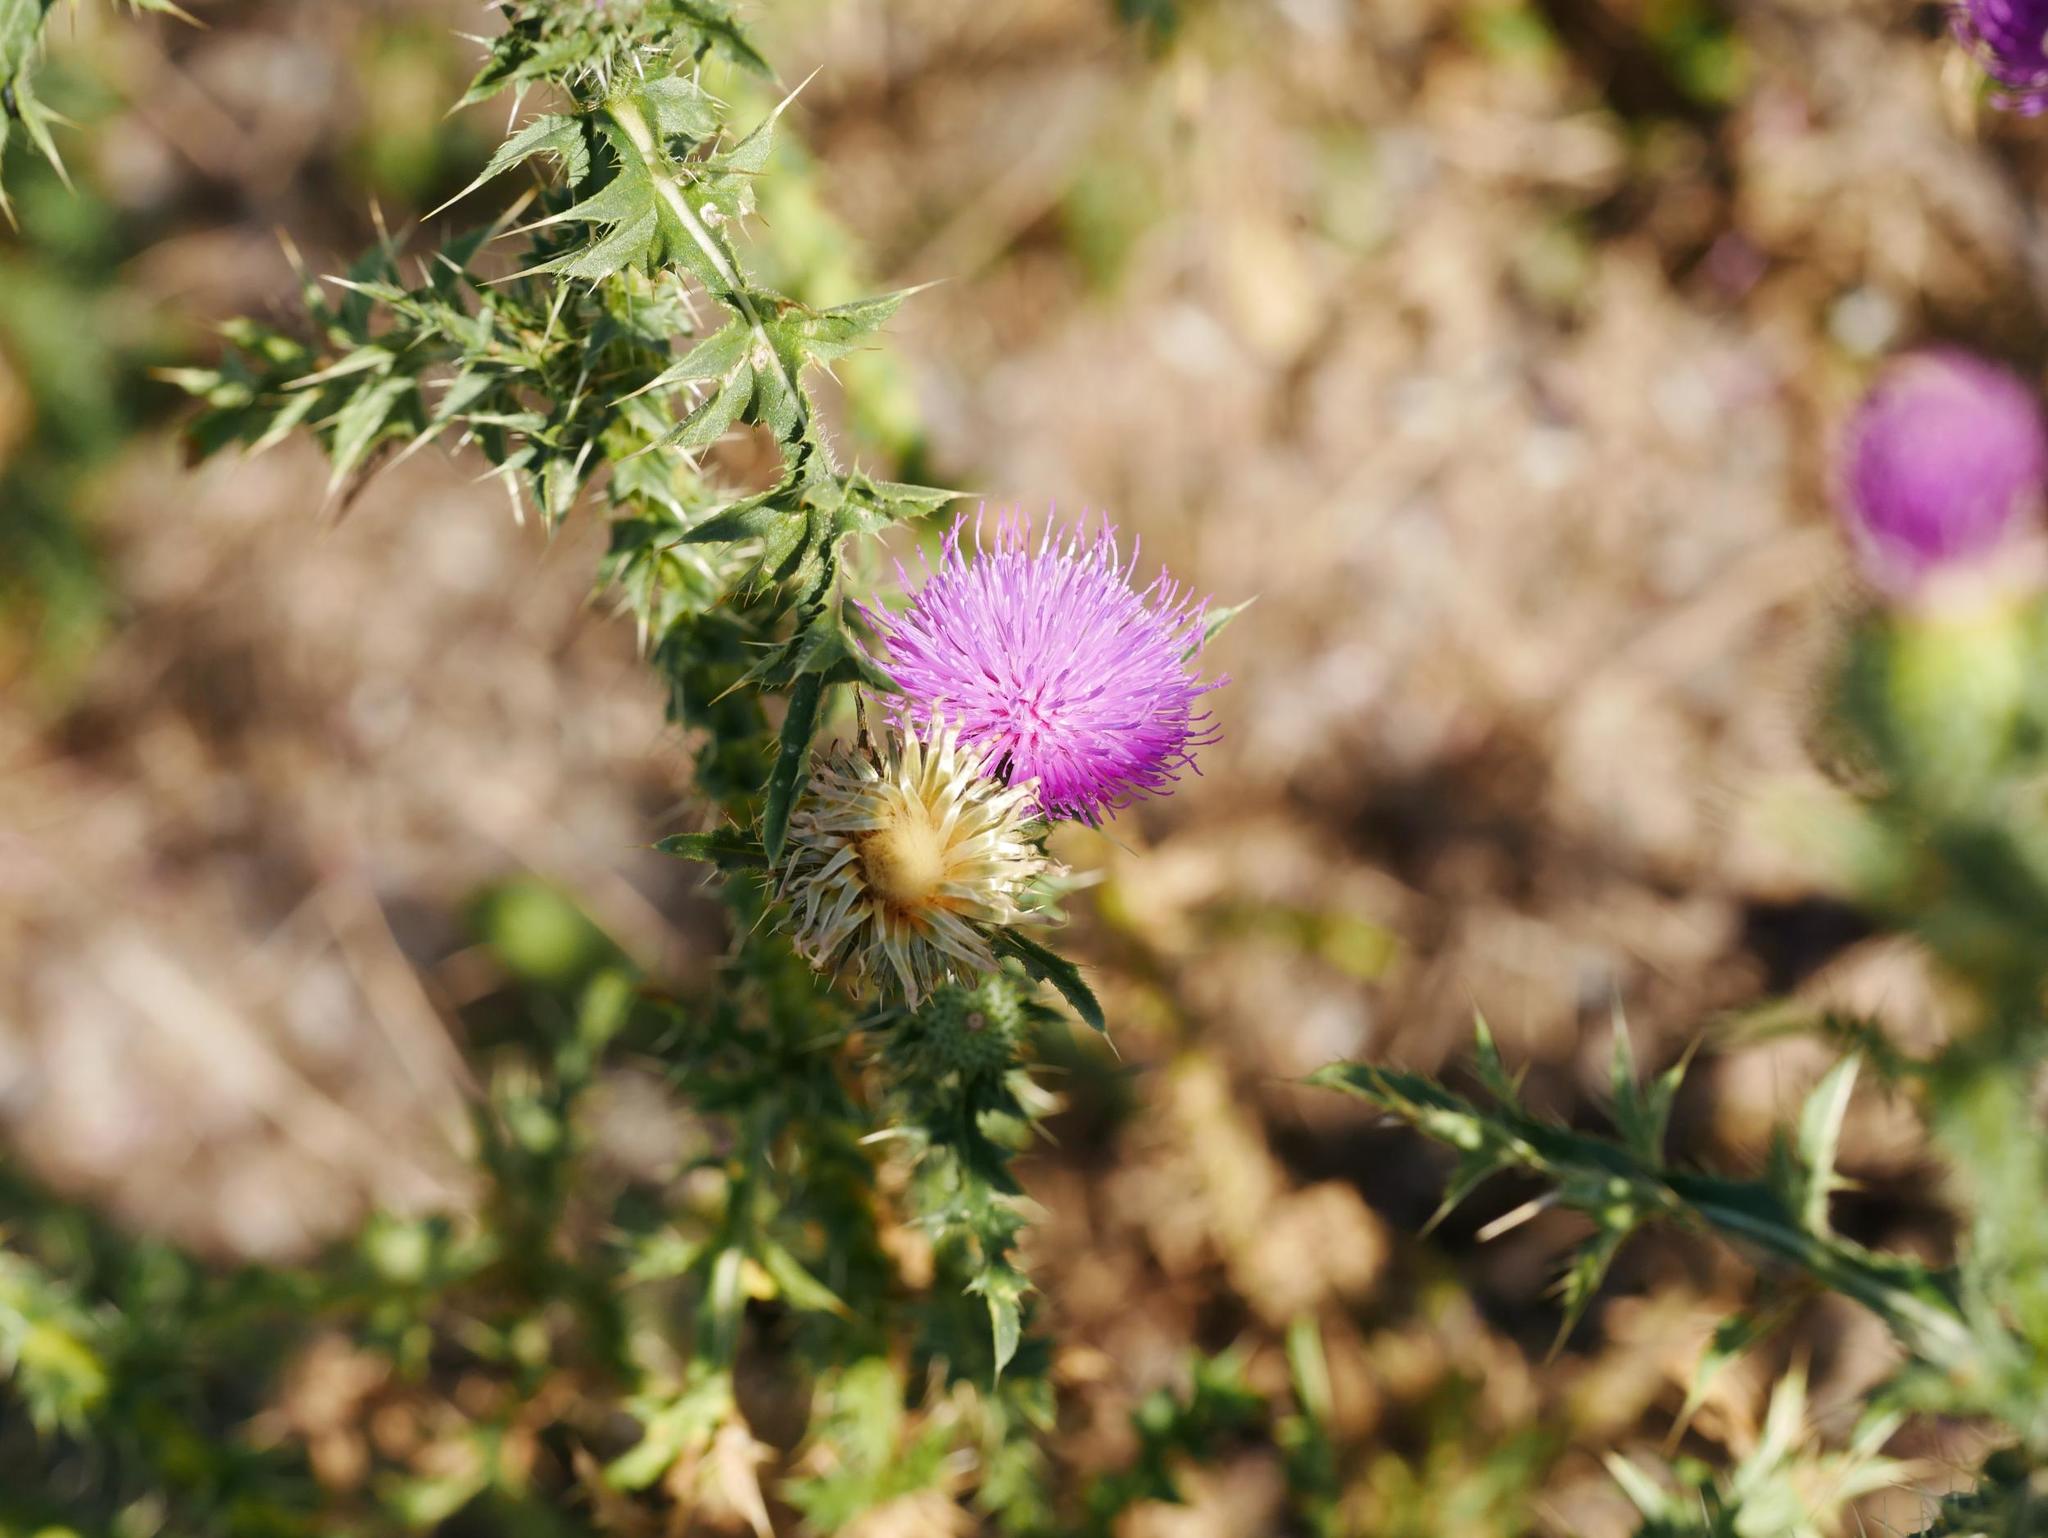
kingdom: Plantae
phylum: Tracheophyta
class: Magnoliopsida
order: Asterales
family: Asteraceae
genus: Carduus
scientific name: Carduus acanthoides
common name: Plumeless thistle
